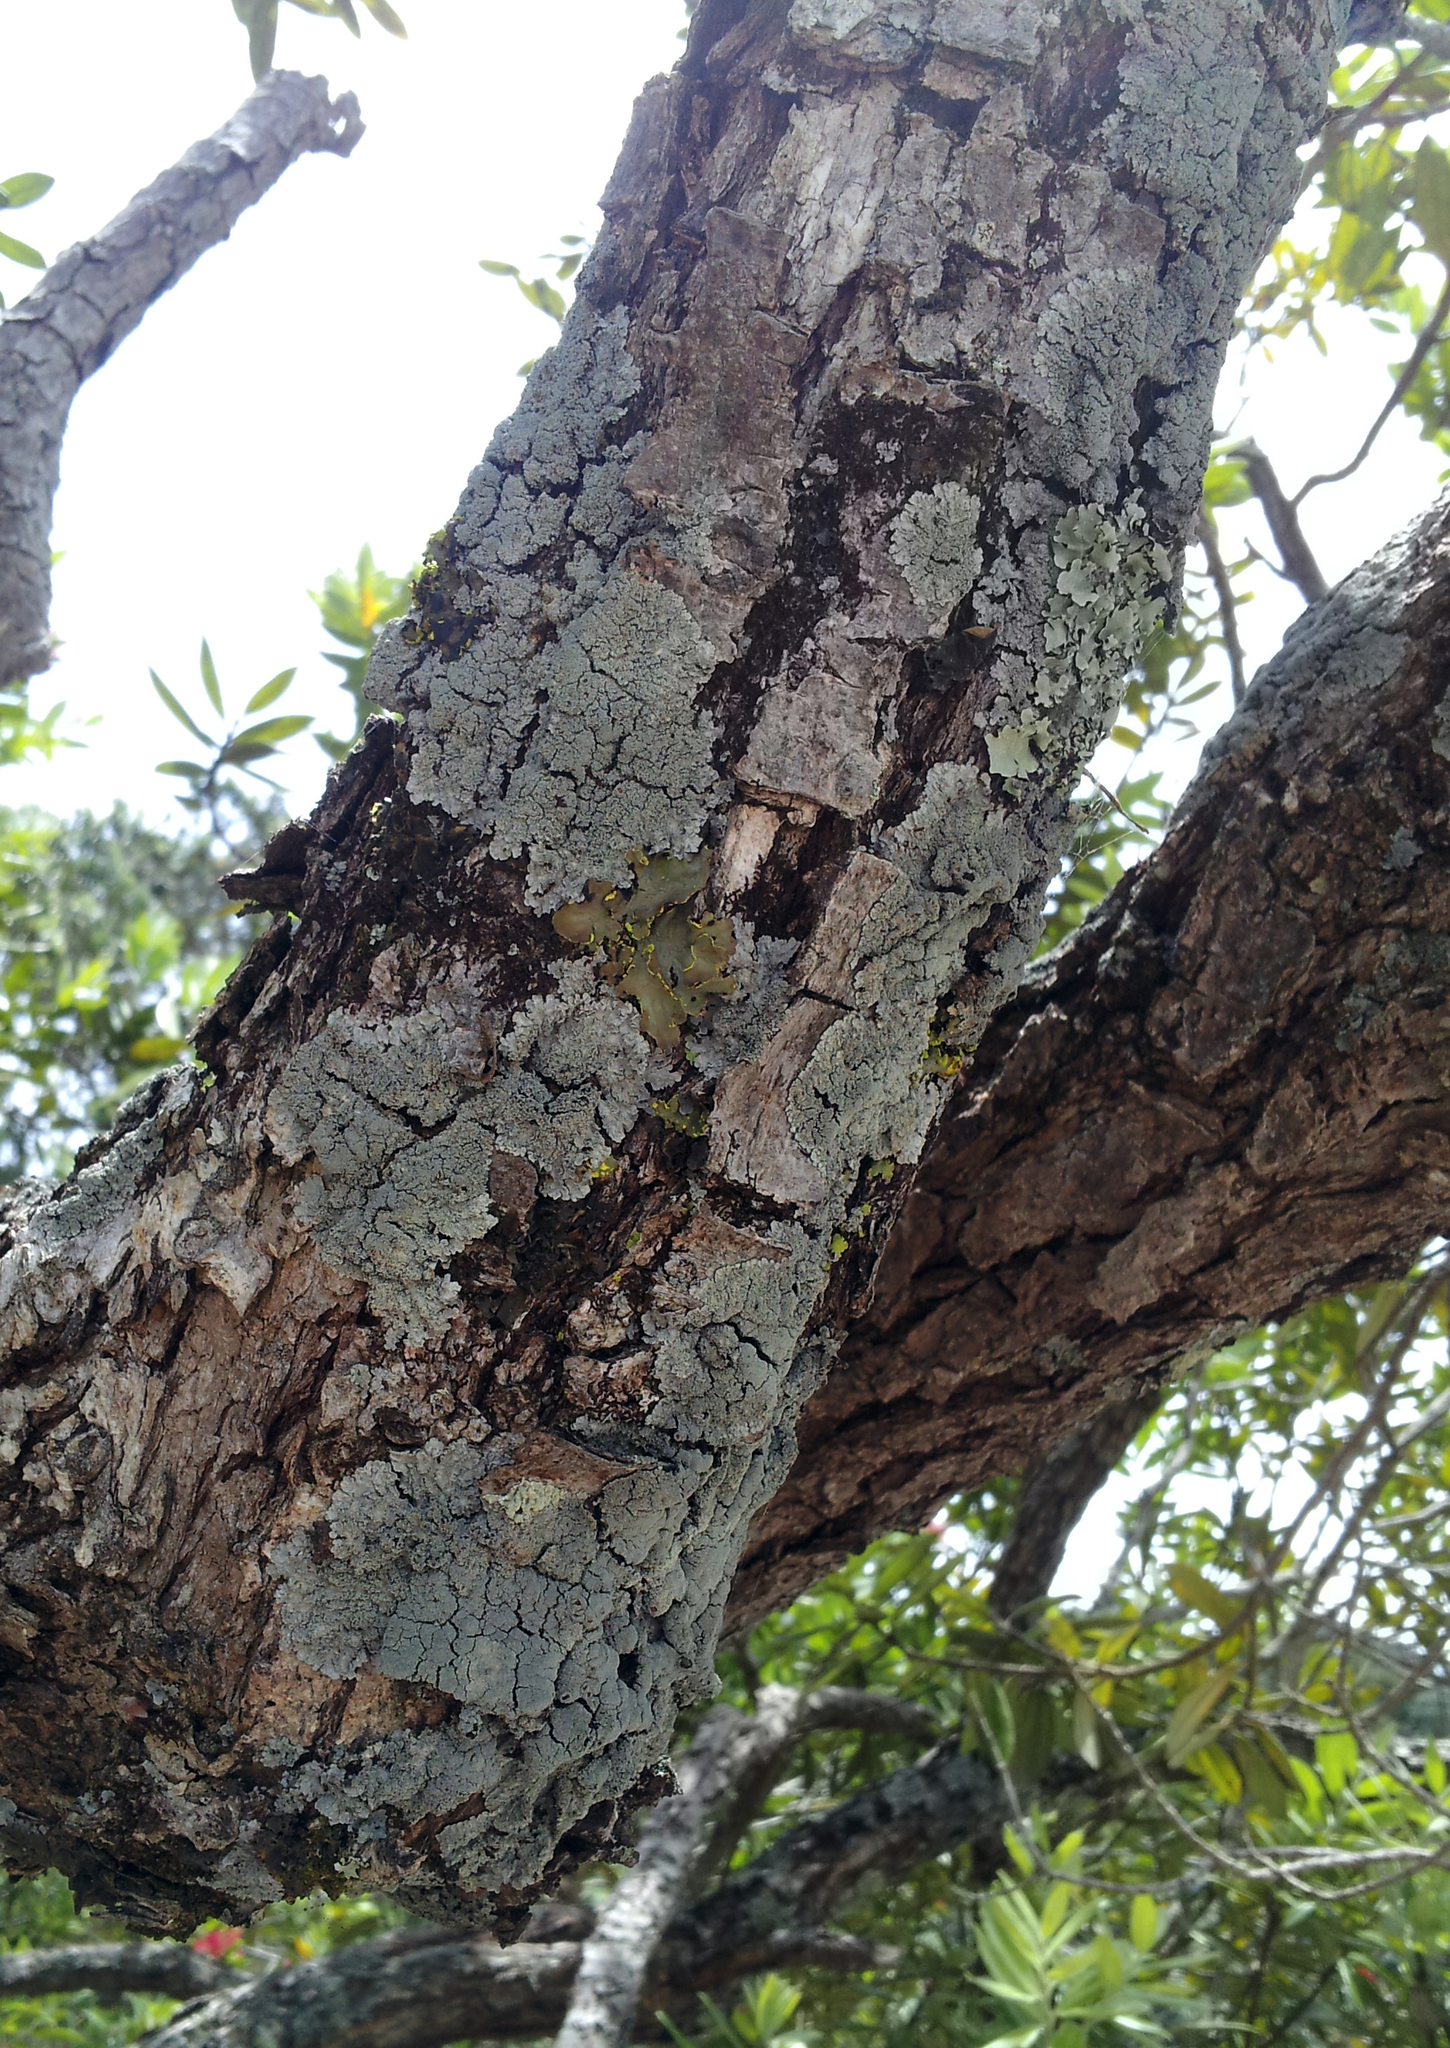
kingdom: Fungi
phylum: Ascomycota
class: Lecanoromycetes
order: Peltigerales
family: Pannariaceae
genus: Pannaria
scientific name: Pannaria elixii
